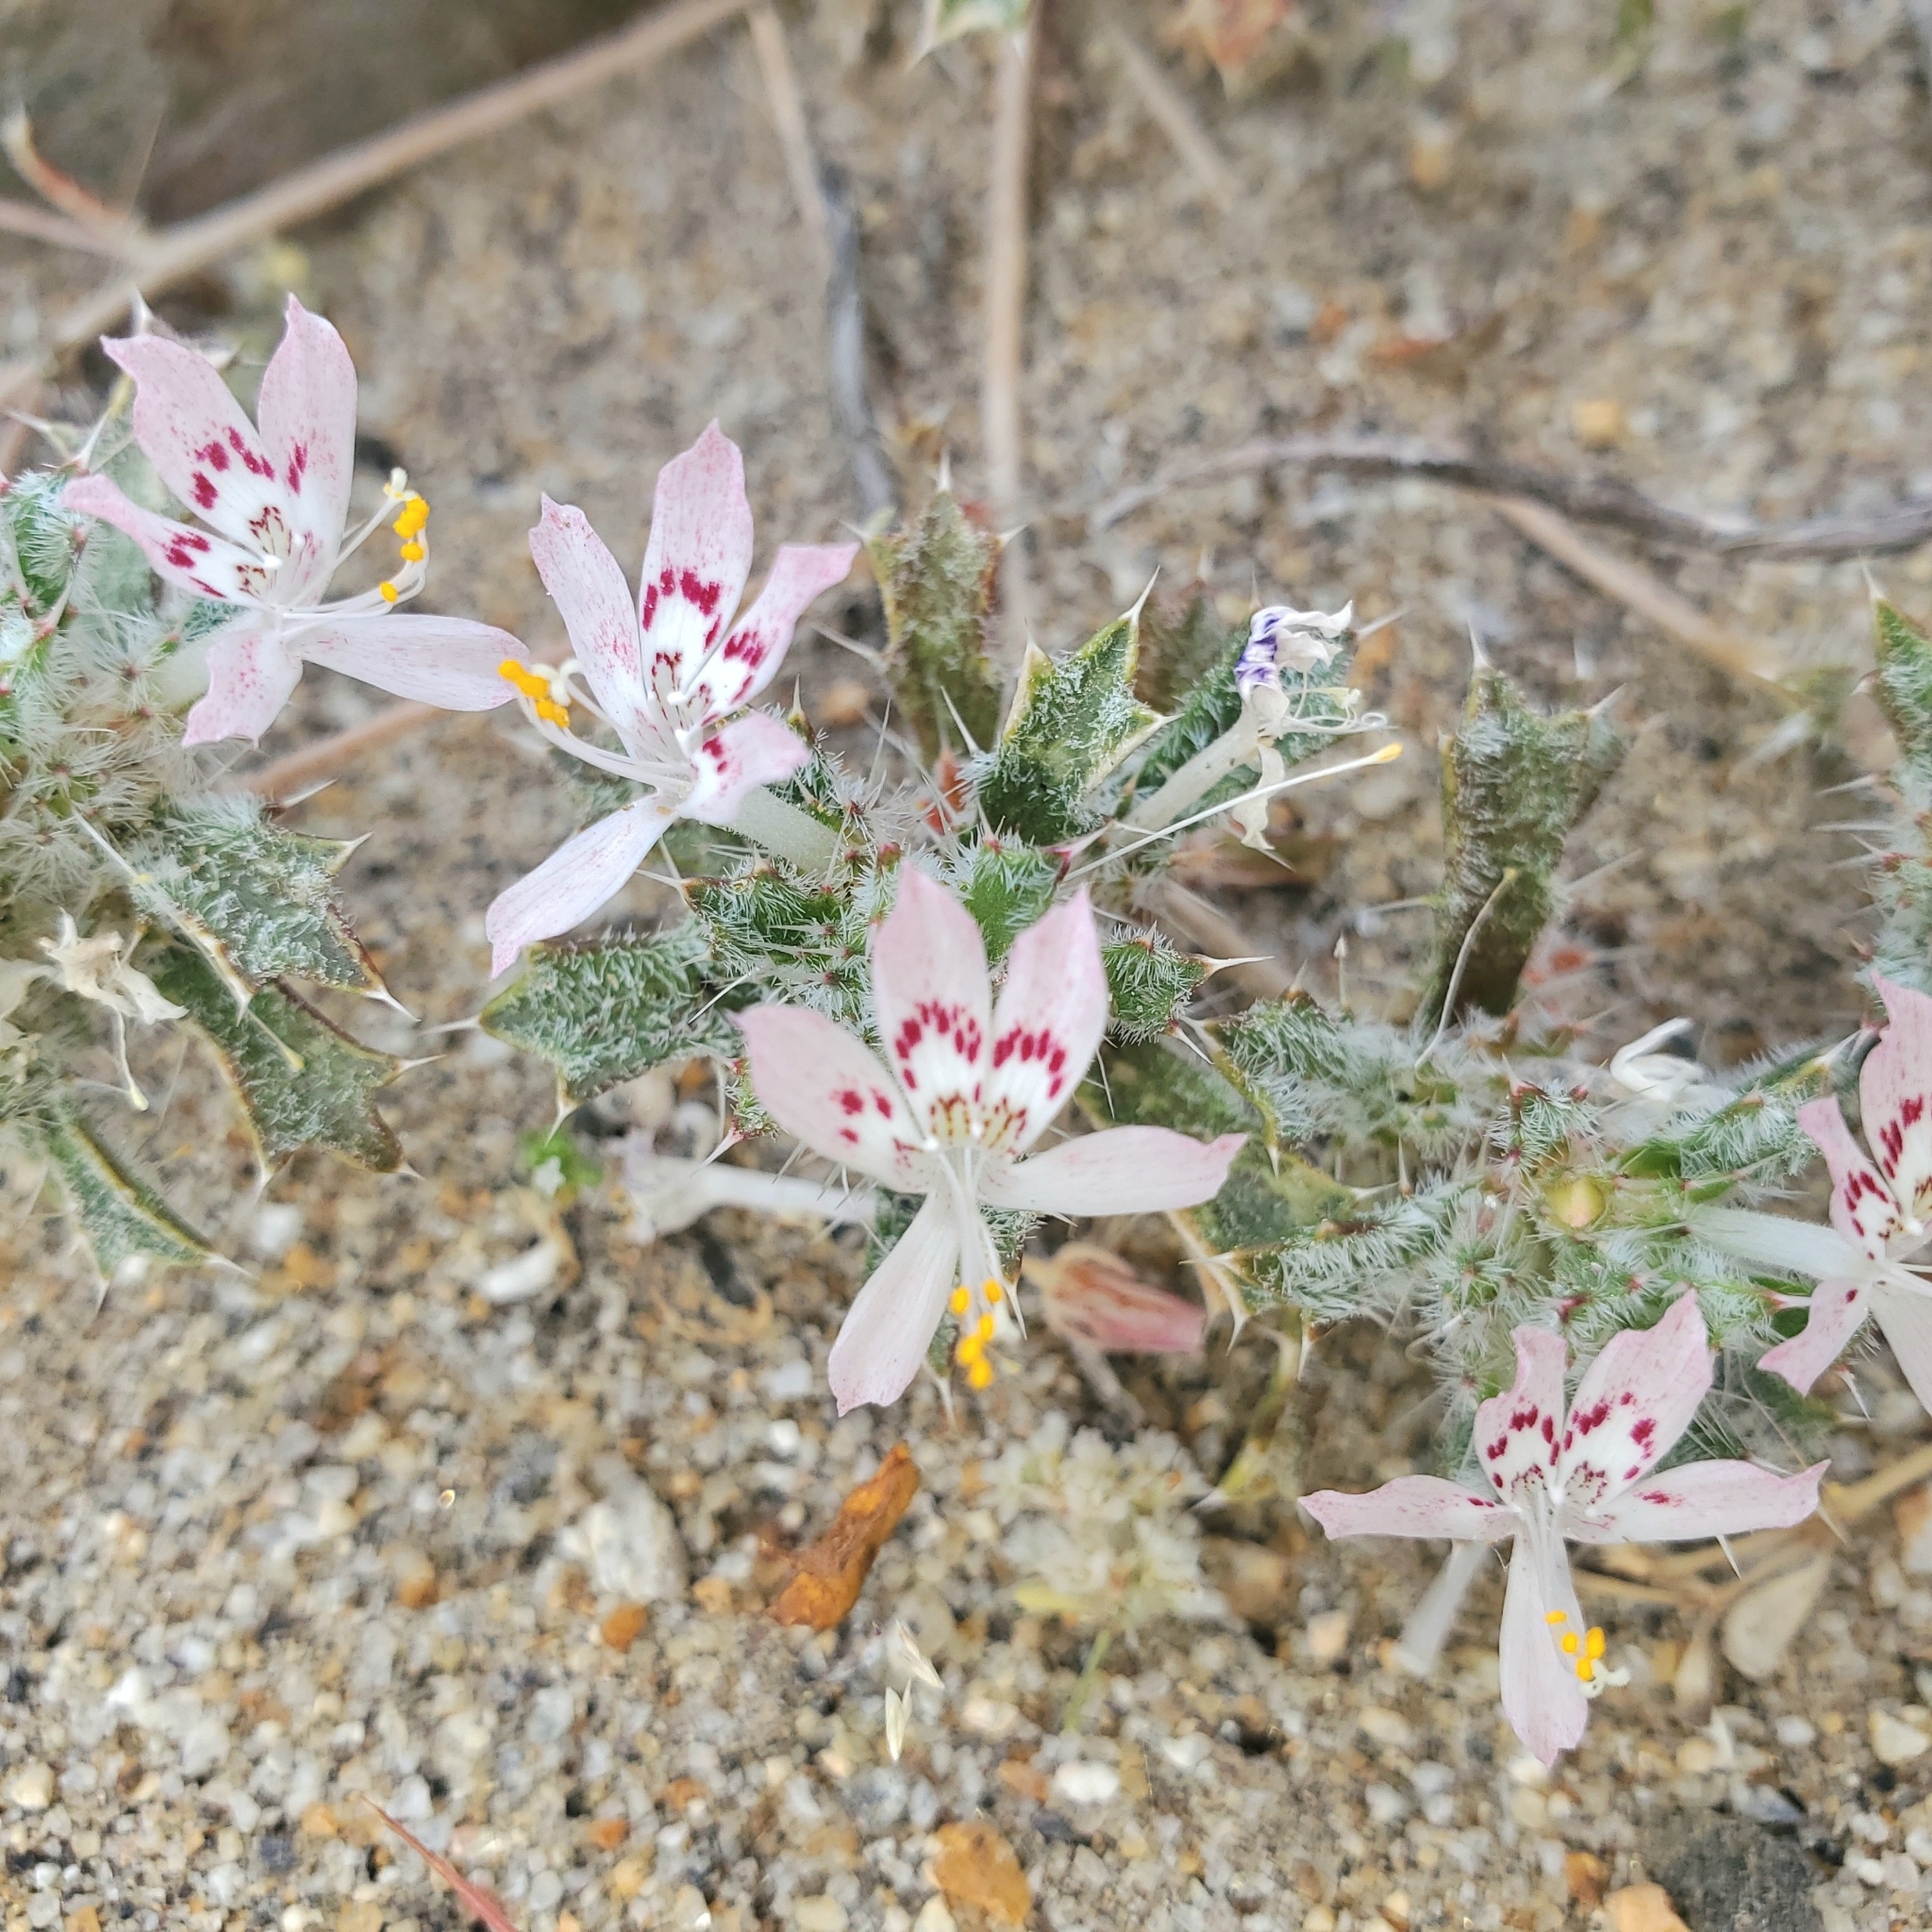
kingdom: Plantae
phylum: Tracheophyta
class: Magnoliopsida
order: Ericales
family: Polemoniaceae
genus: Loeseliastrum
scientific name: Loeseliastrum matthewsii
